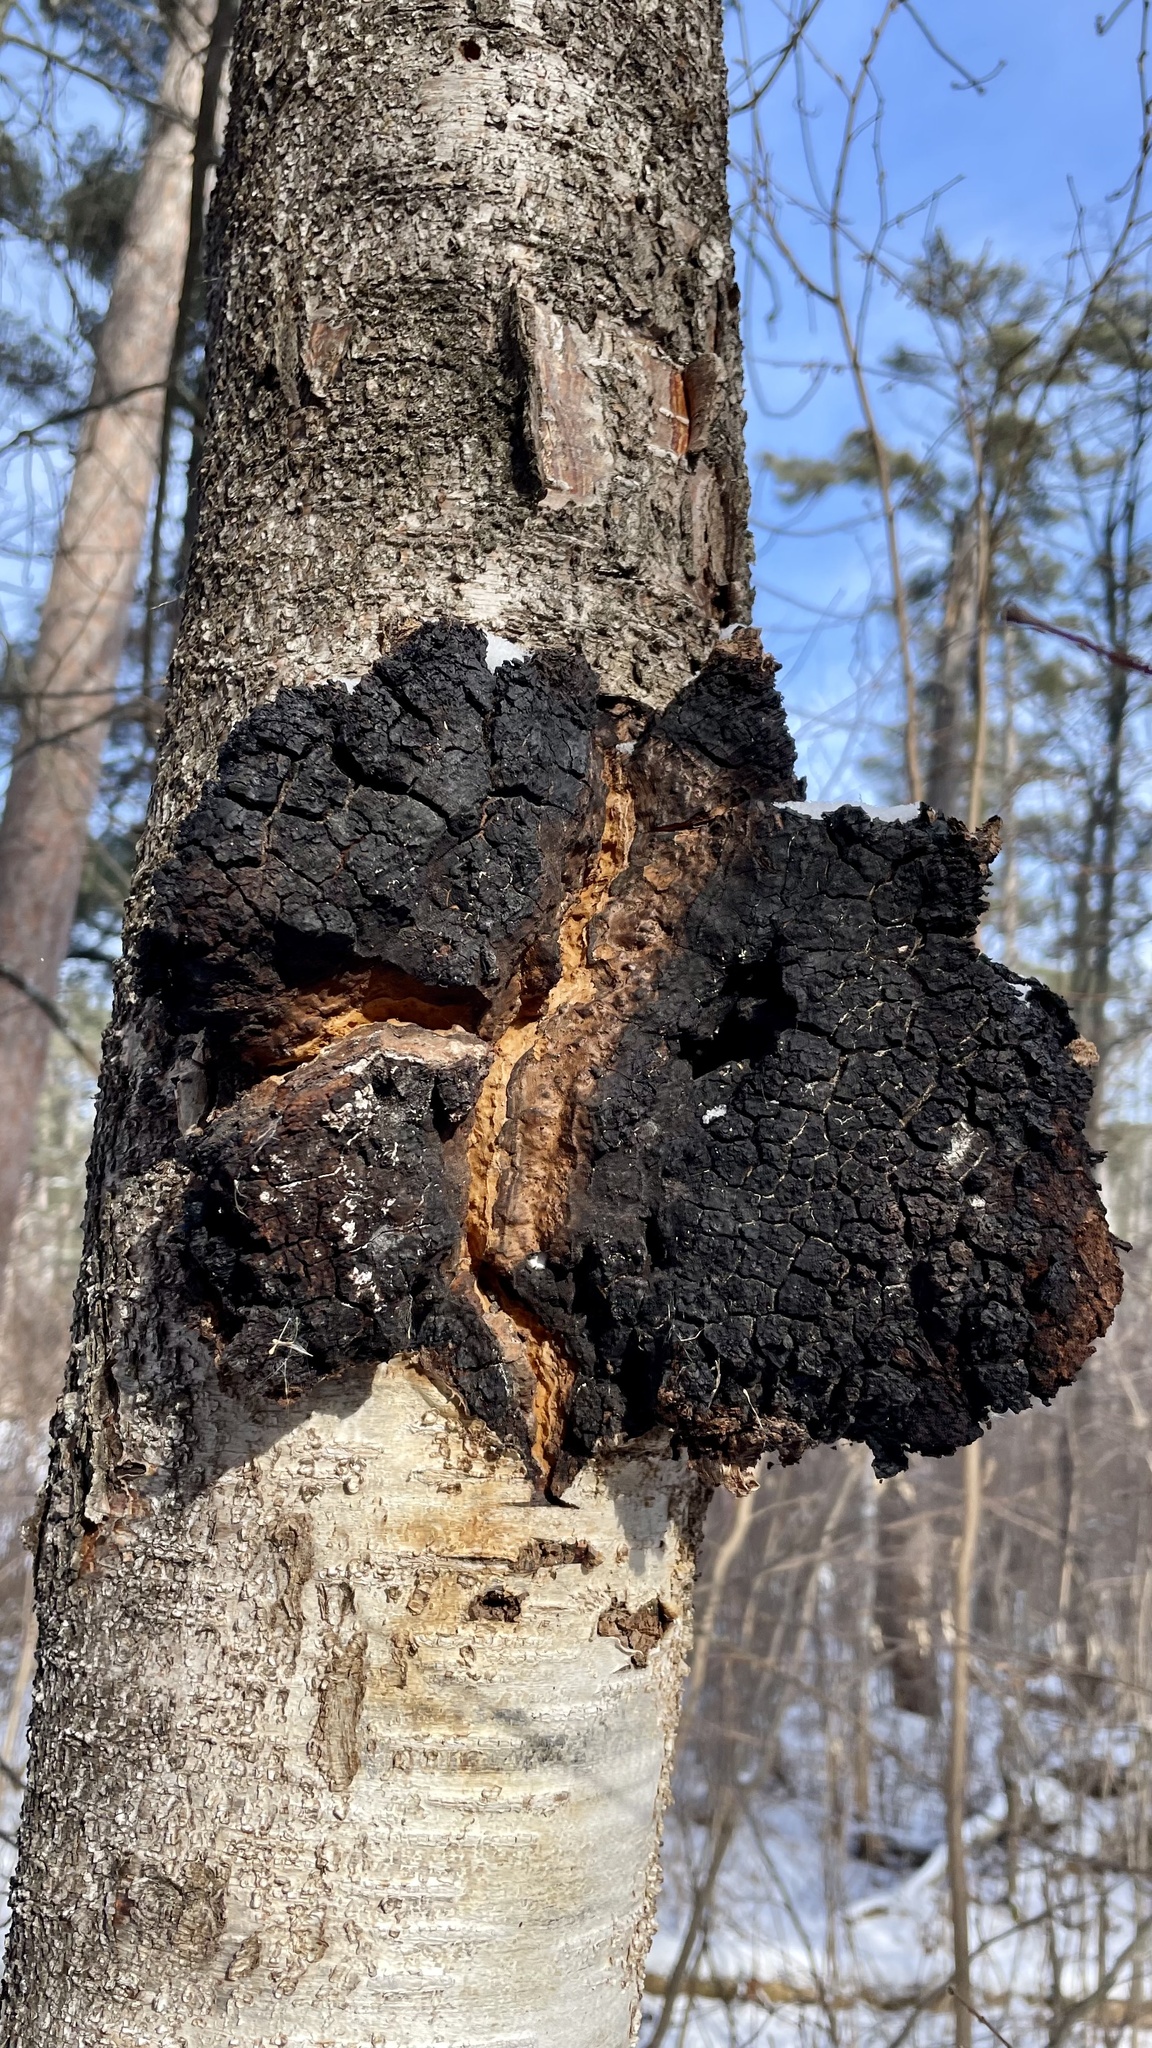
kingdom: Fungi
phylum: Basidiomycota
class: Agaricomycetes
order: Hymenochaetales
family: Hymenochaetaceae
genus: Inonotus
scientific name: Inonotus obliquus
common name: Chaga
